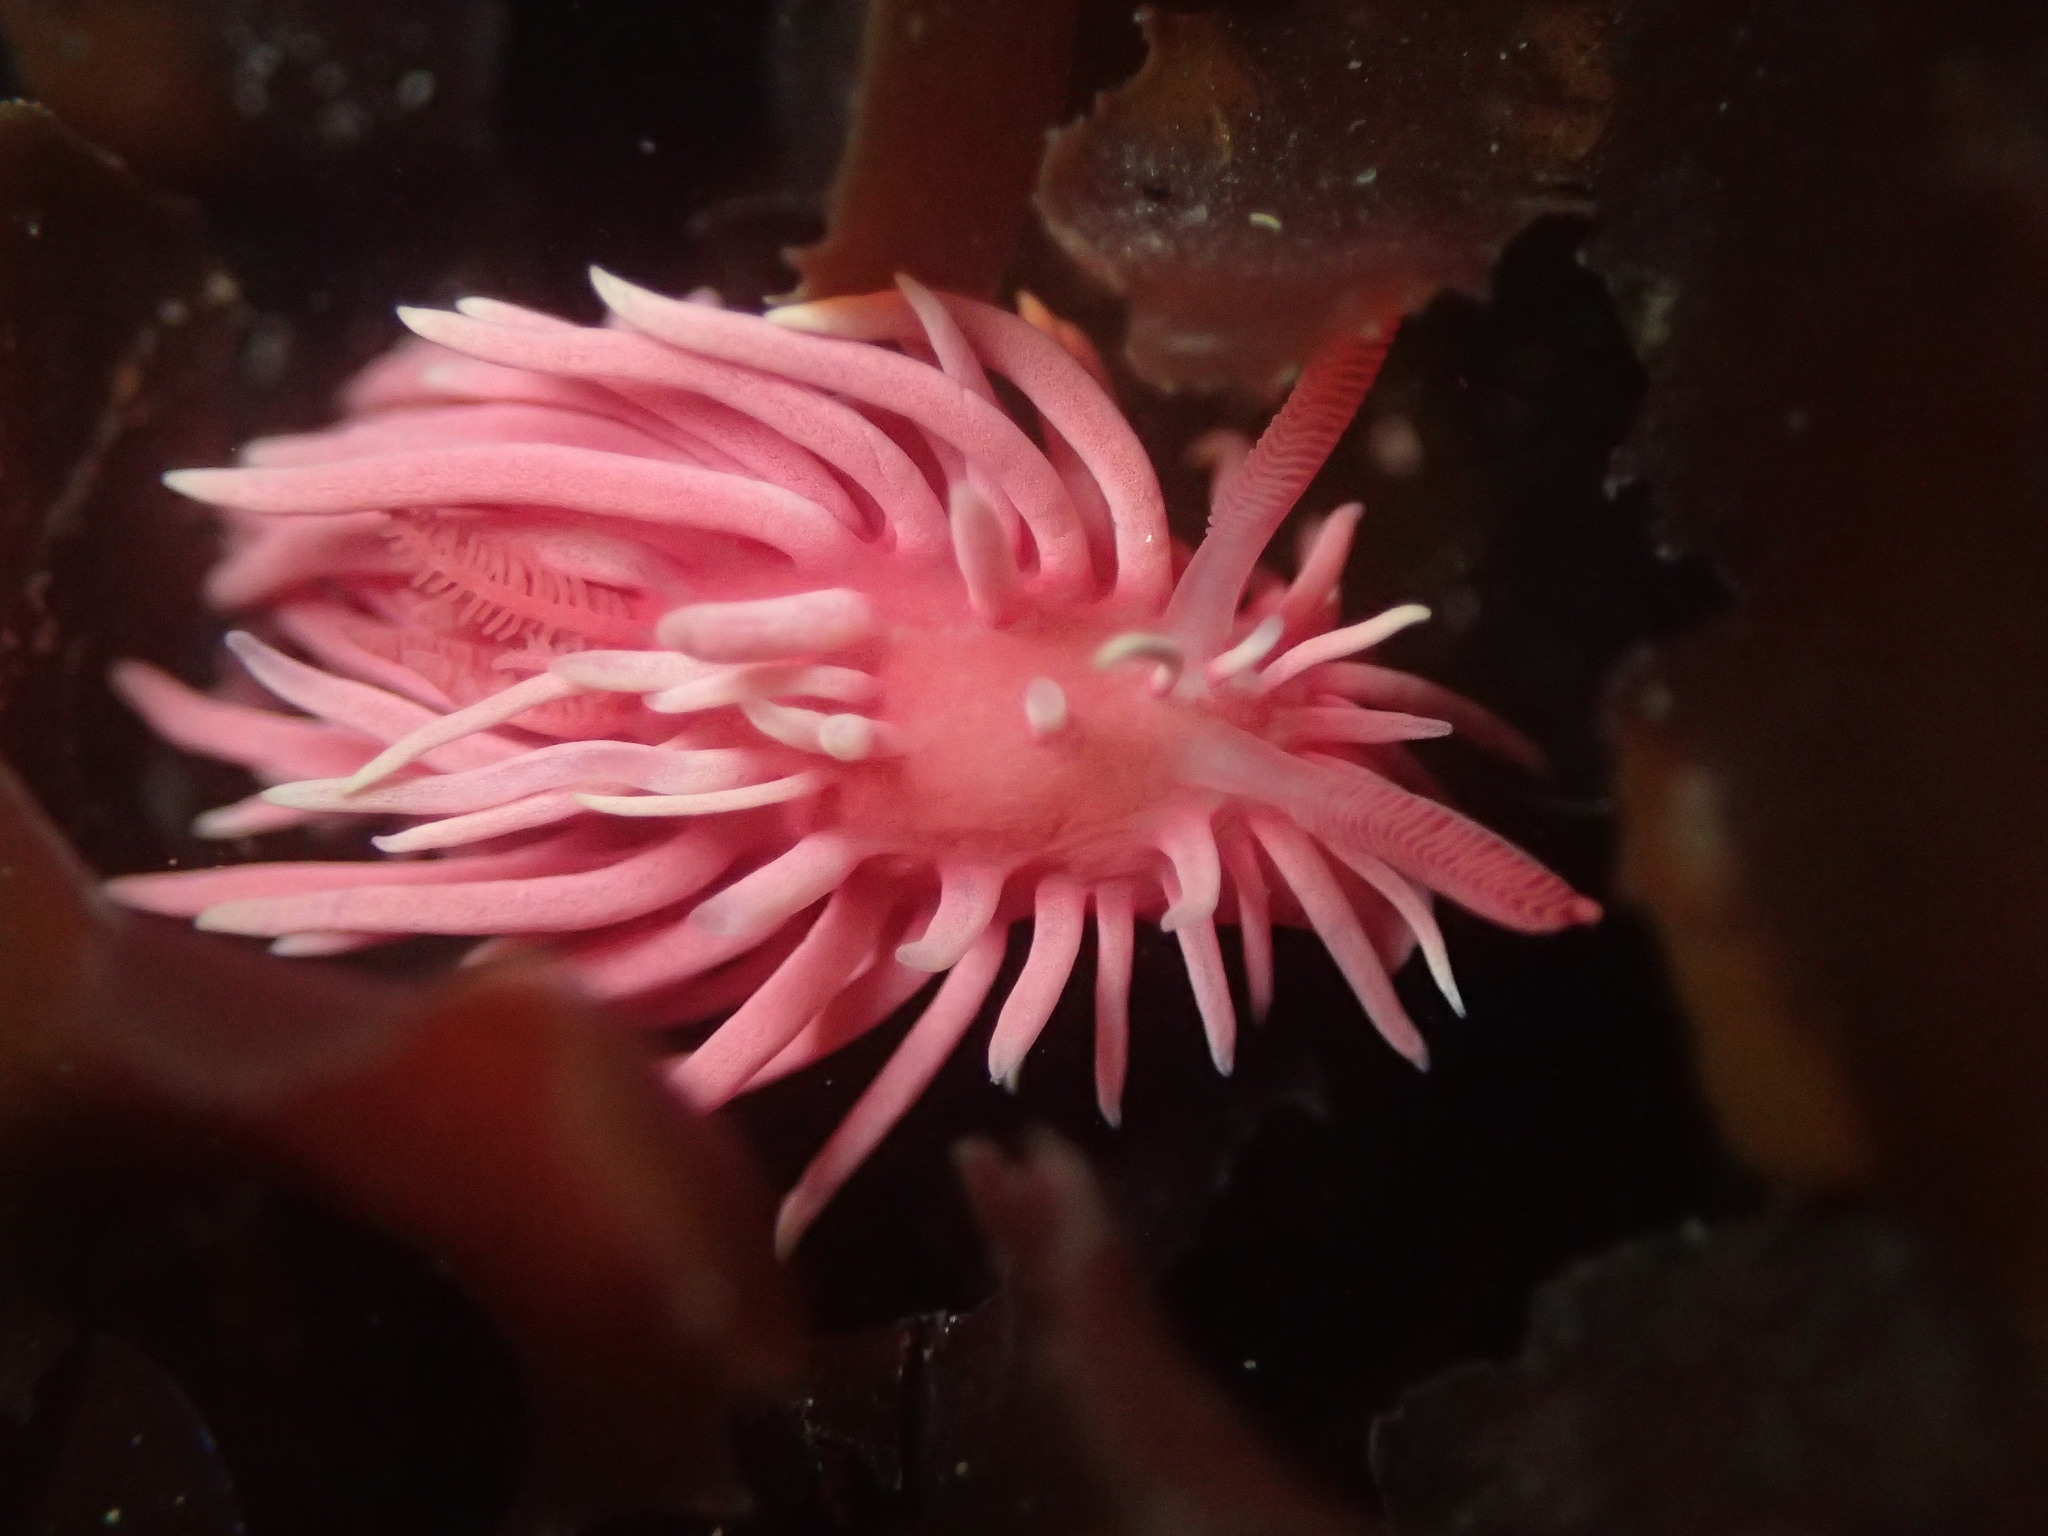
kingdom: Animalia
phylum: Mollusca
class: Gastropoda
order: Nudibranchia
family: Goniodorididae
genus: Okenia
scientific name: Okenia
